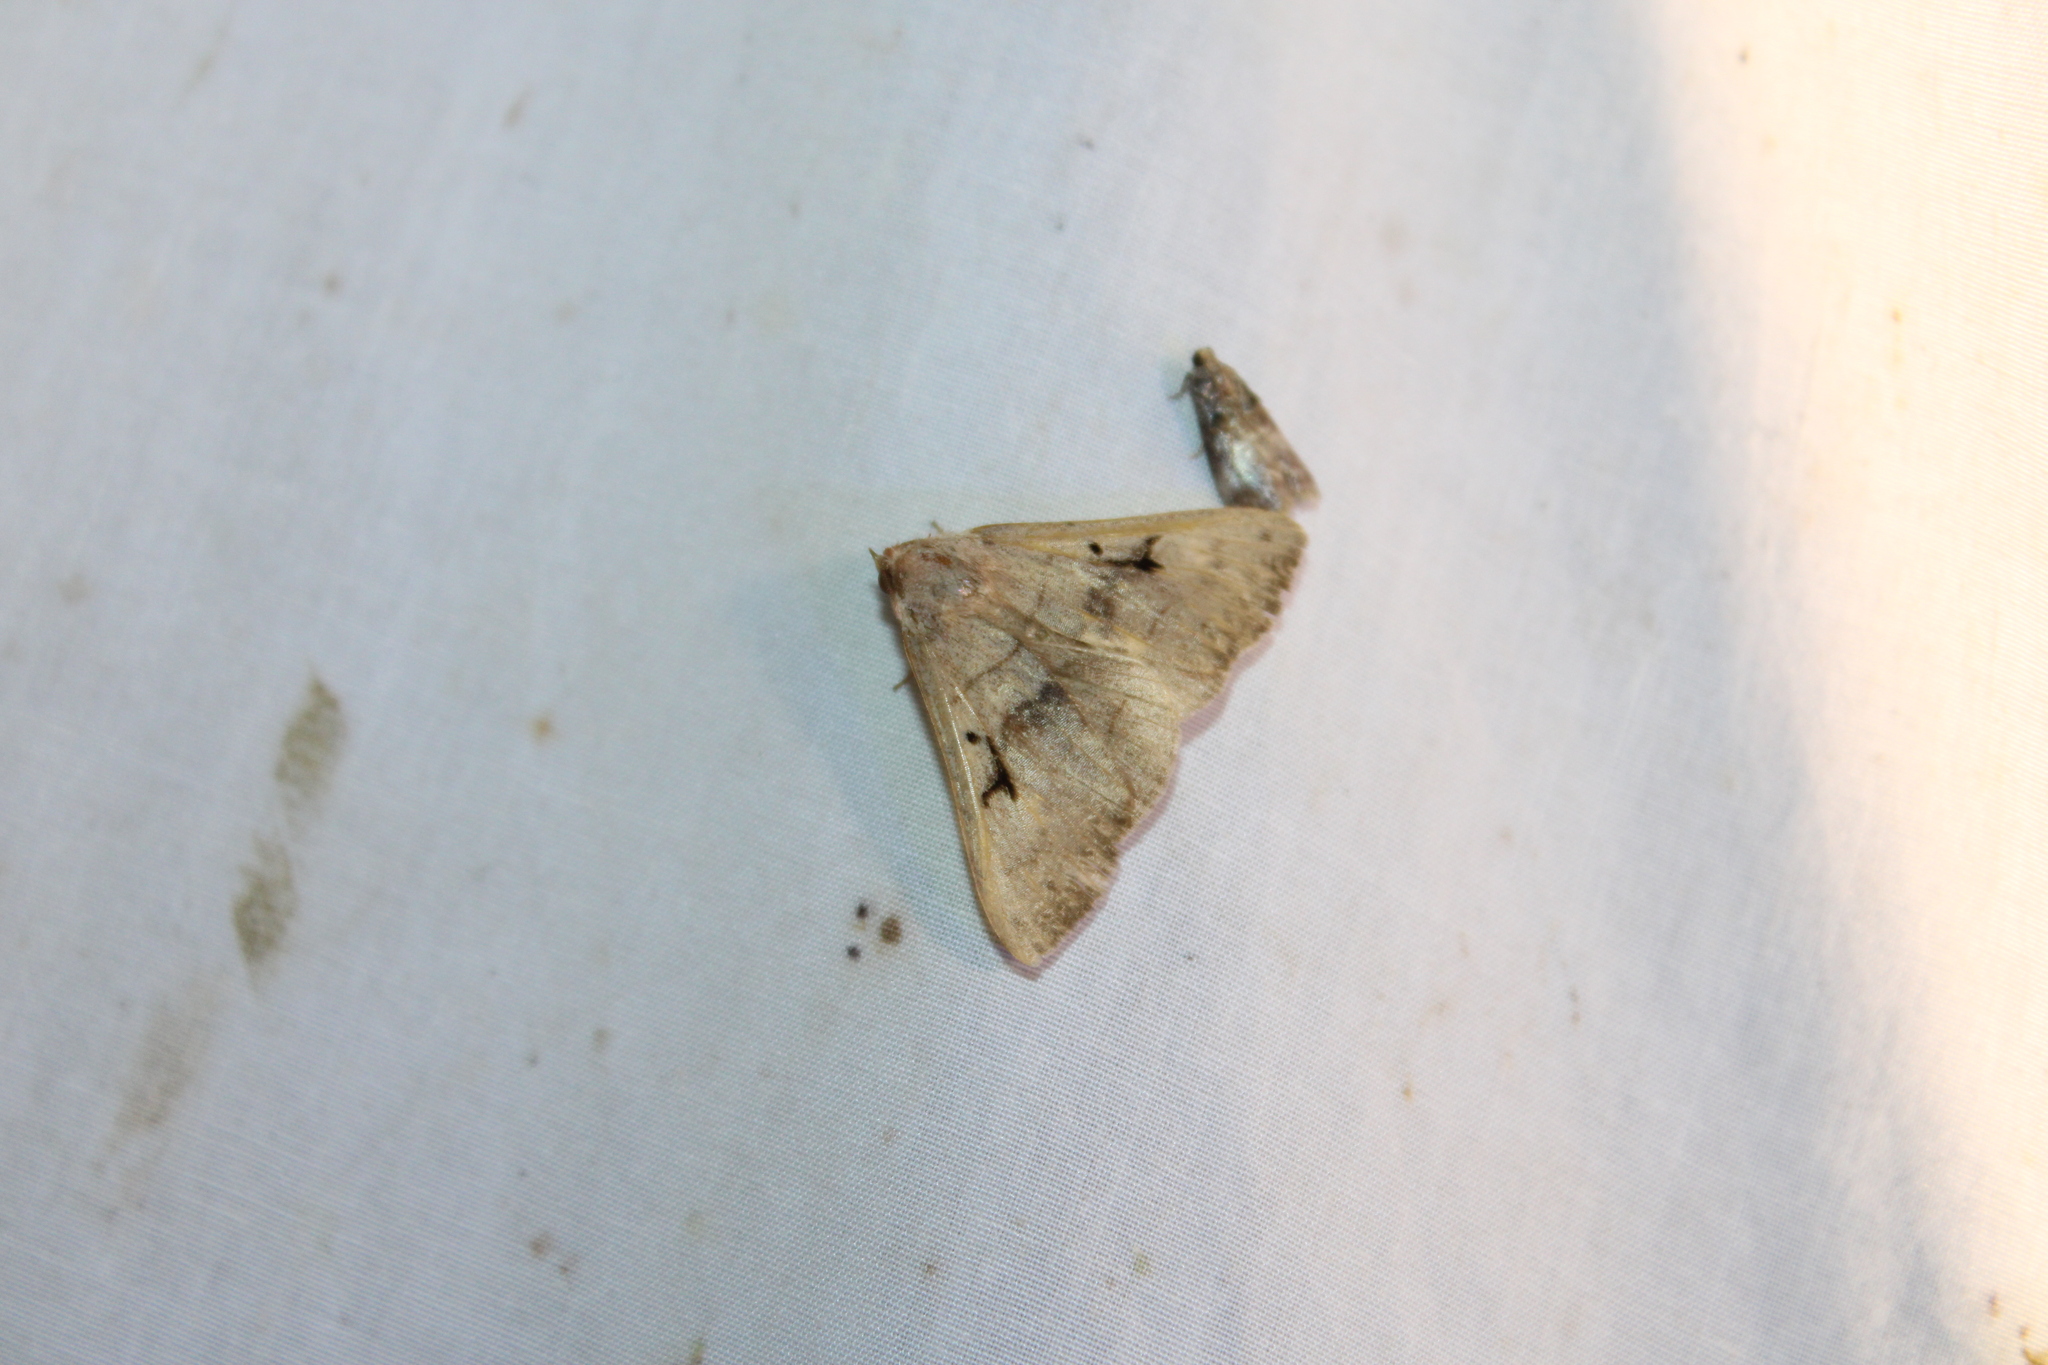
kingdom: Animalia
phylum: Arthropoda
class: Insecta
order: Lepidoptera
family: Erebidae
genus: Panopoda
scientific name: Panopoda carneicosta
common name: Brown panopoda moth
